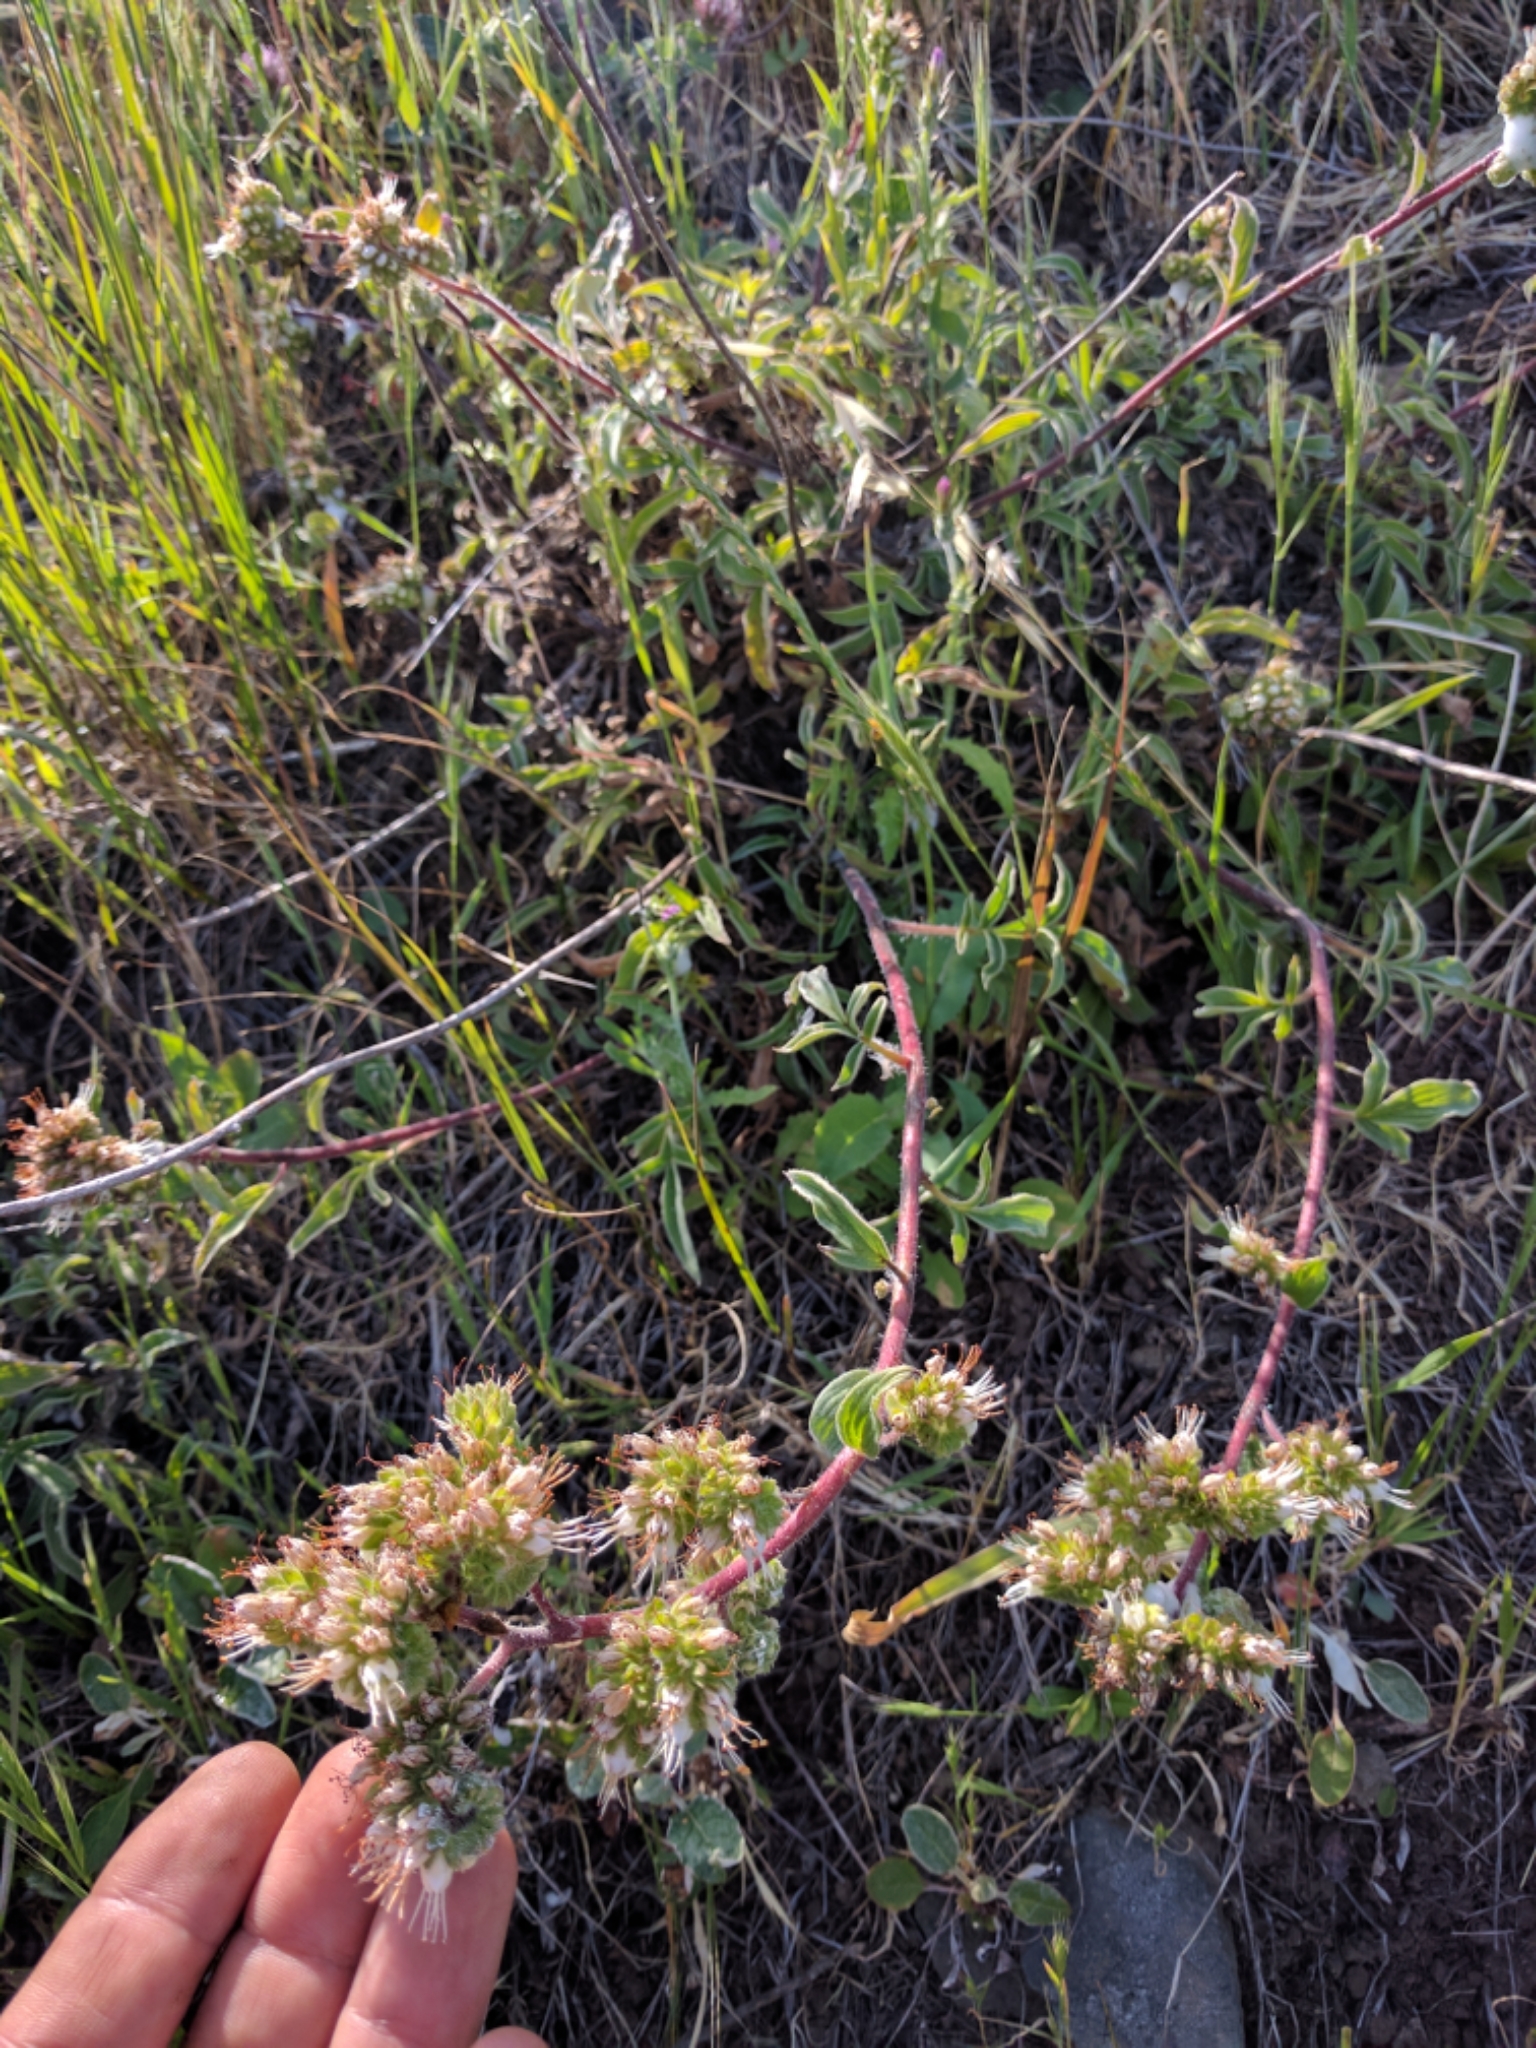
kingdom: Plantae
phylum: Tracheophyta
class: Magnoliopsida
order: Boraginales
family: Hydrophyllaceae
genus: Phacelia
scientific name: Phacelia imbricata
